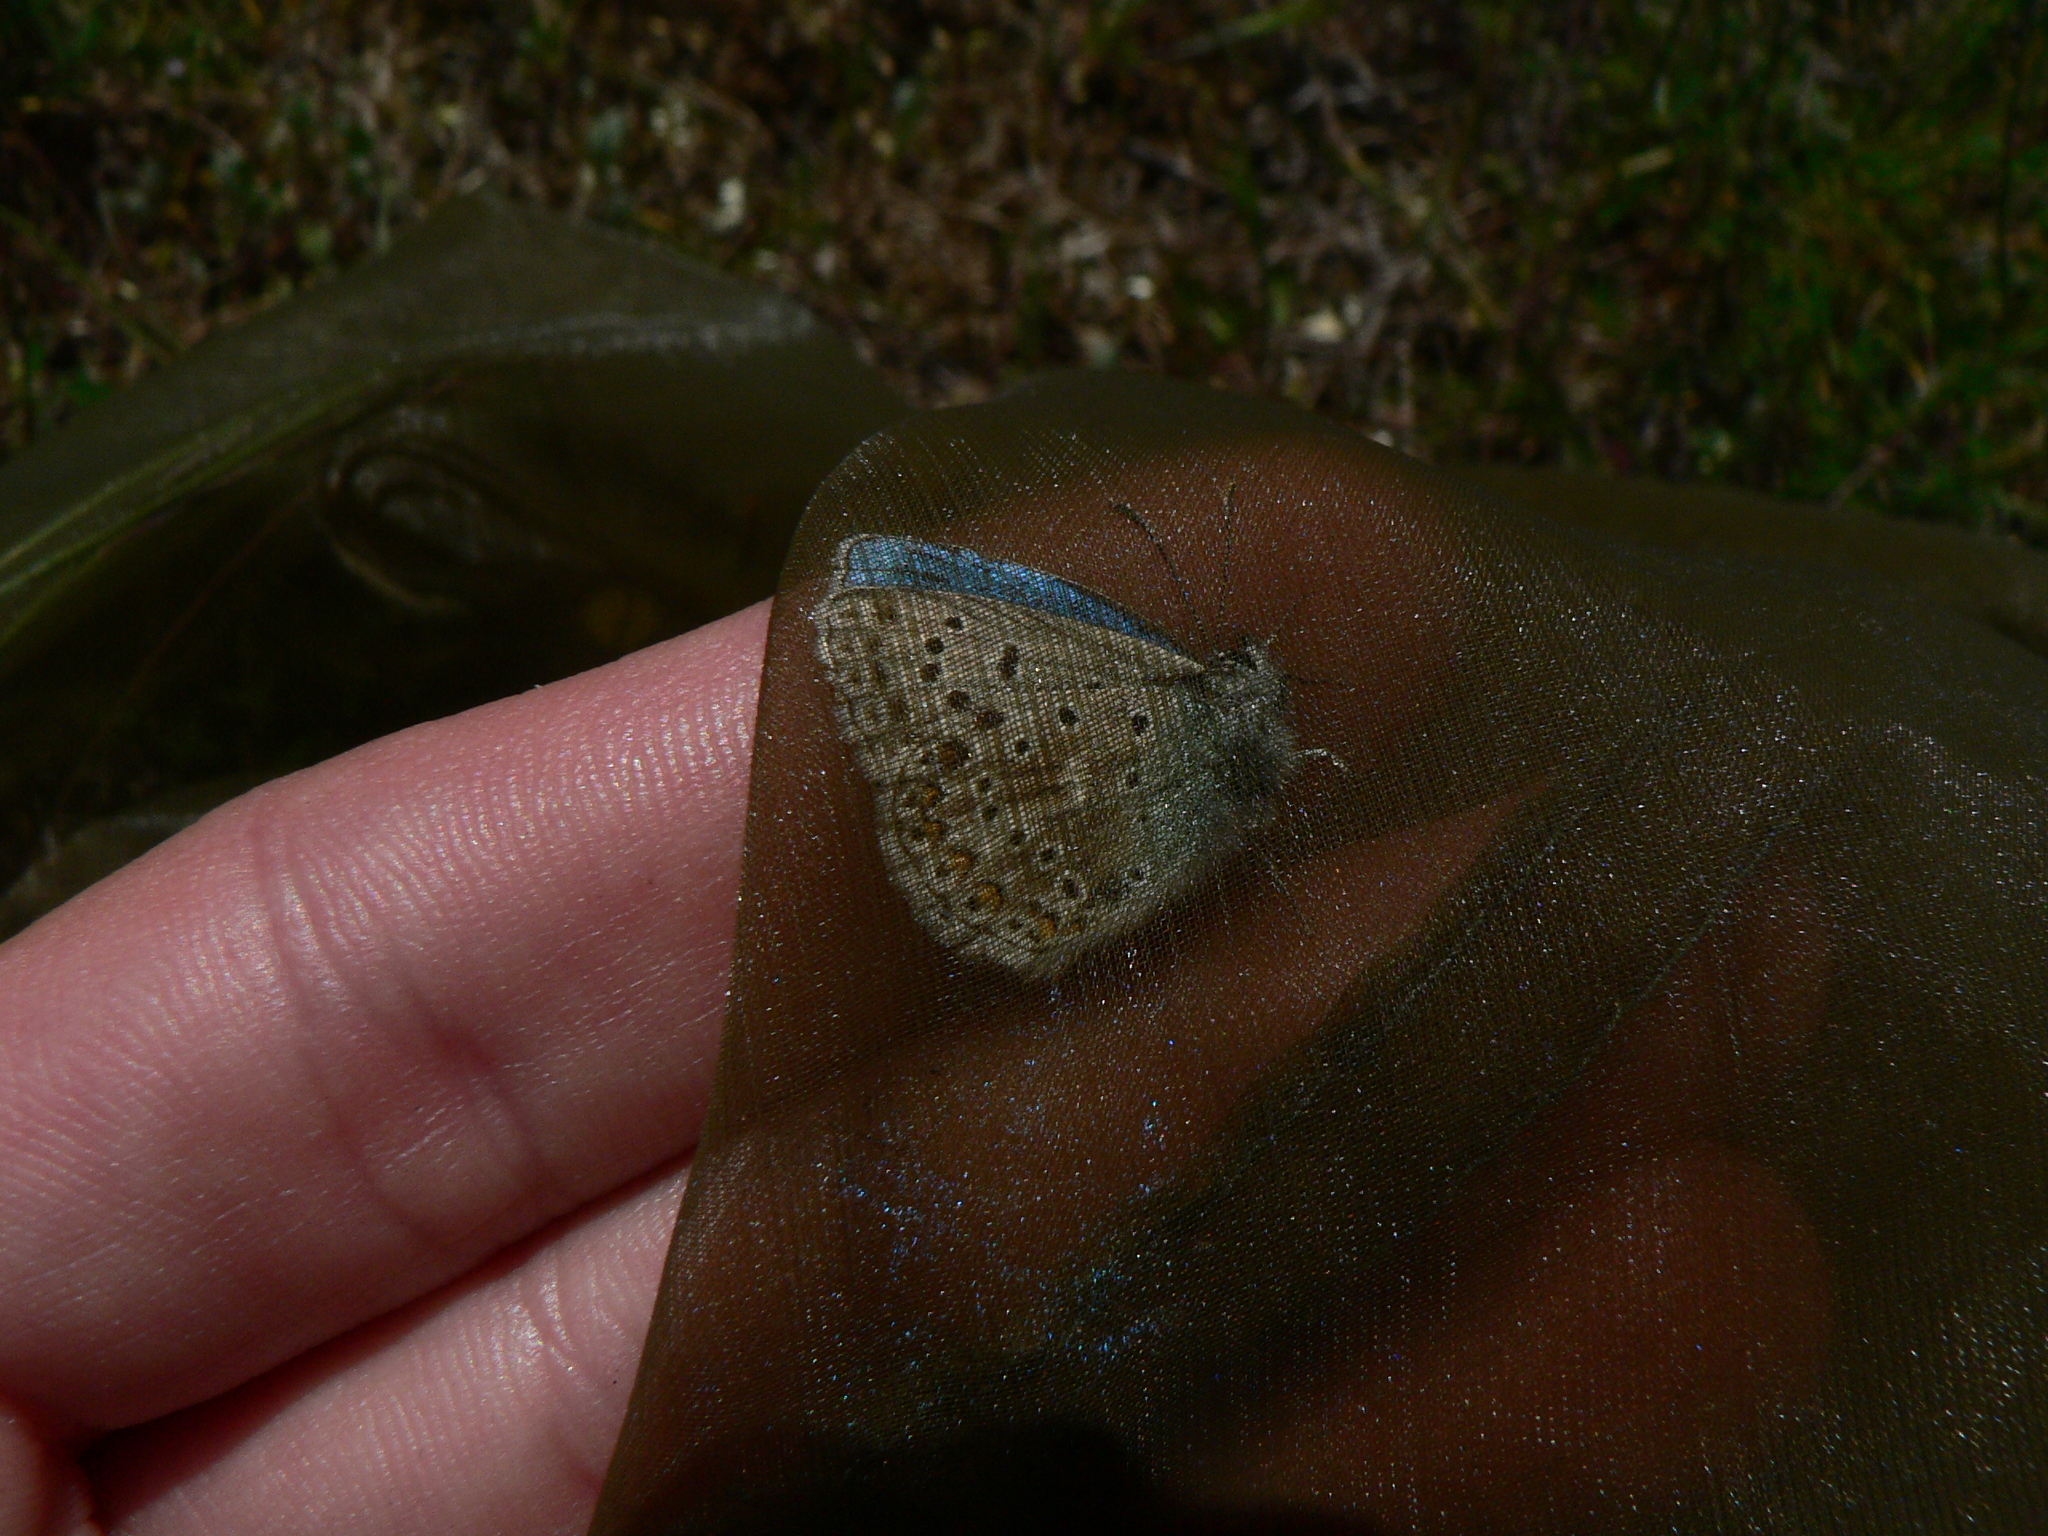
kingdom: Animalia
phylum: Arthropoda
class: Insecta
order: Lepidoptera
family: Lycaenidae
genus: Lysandra
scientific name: Lysandra bellargus
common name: Adonis blue
